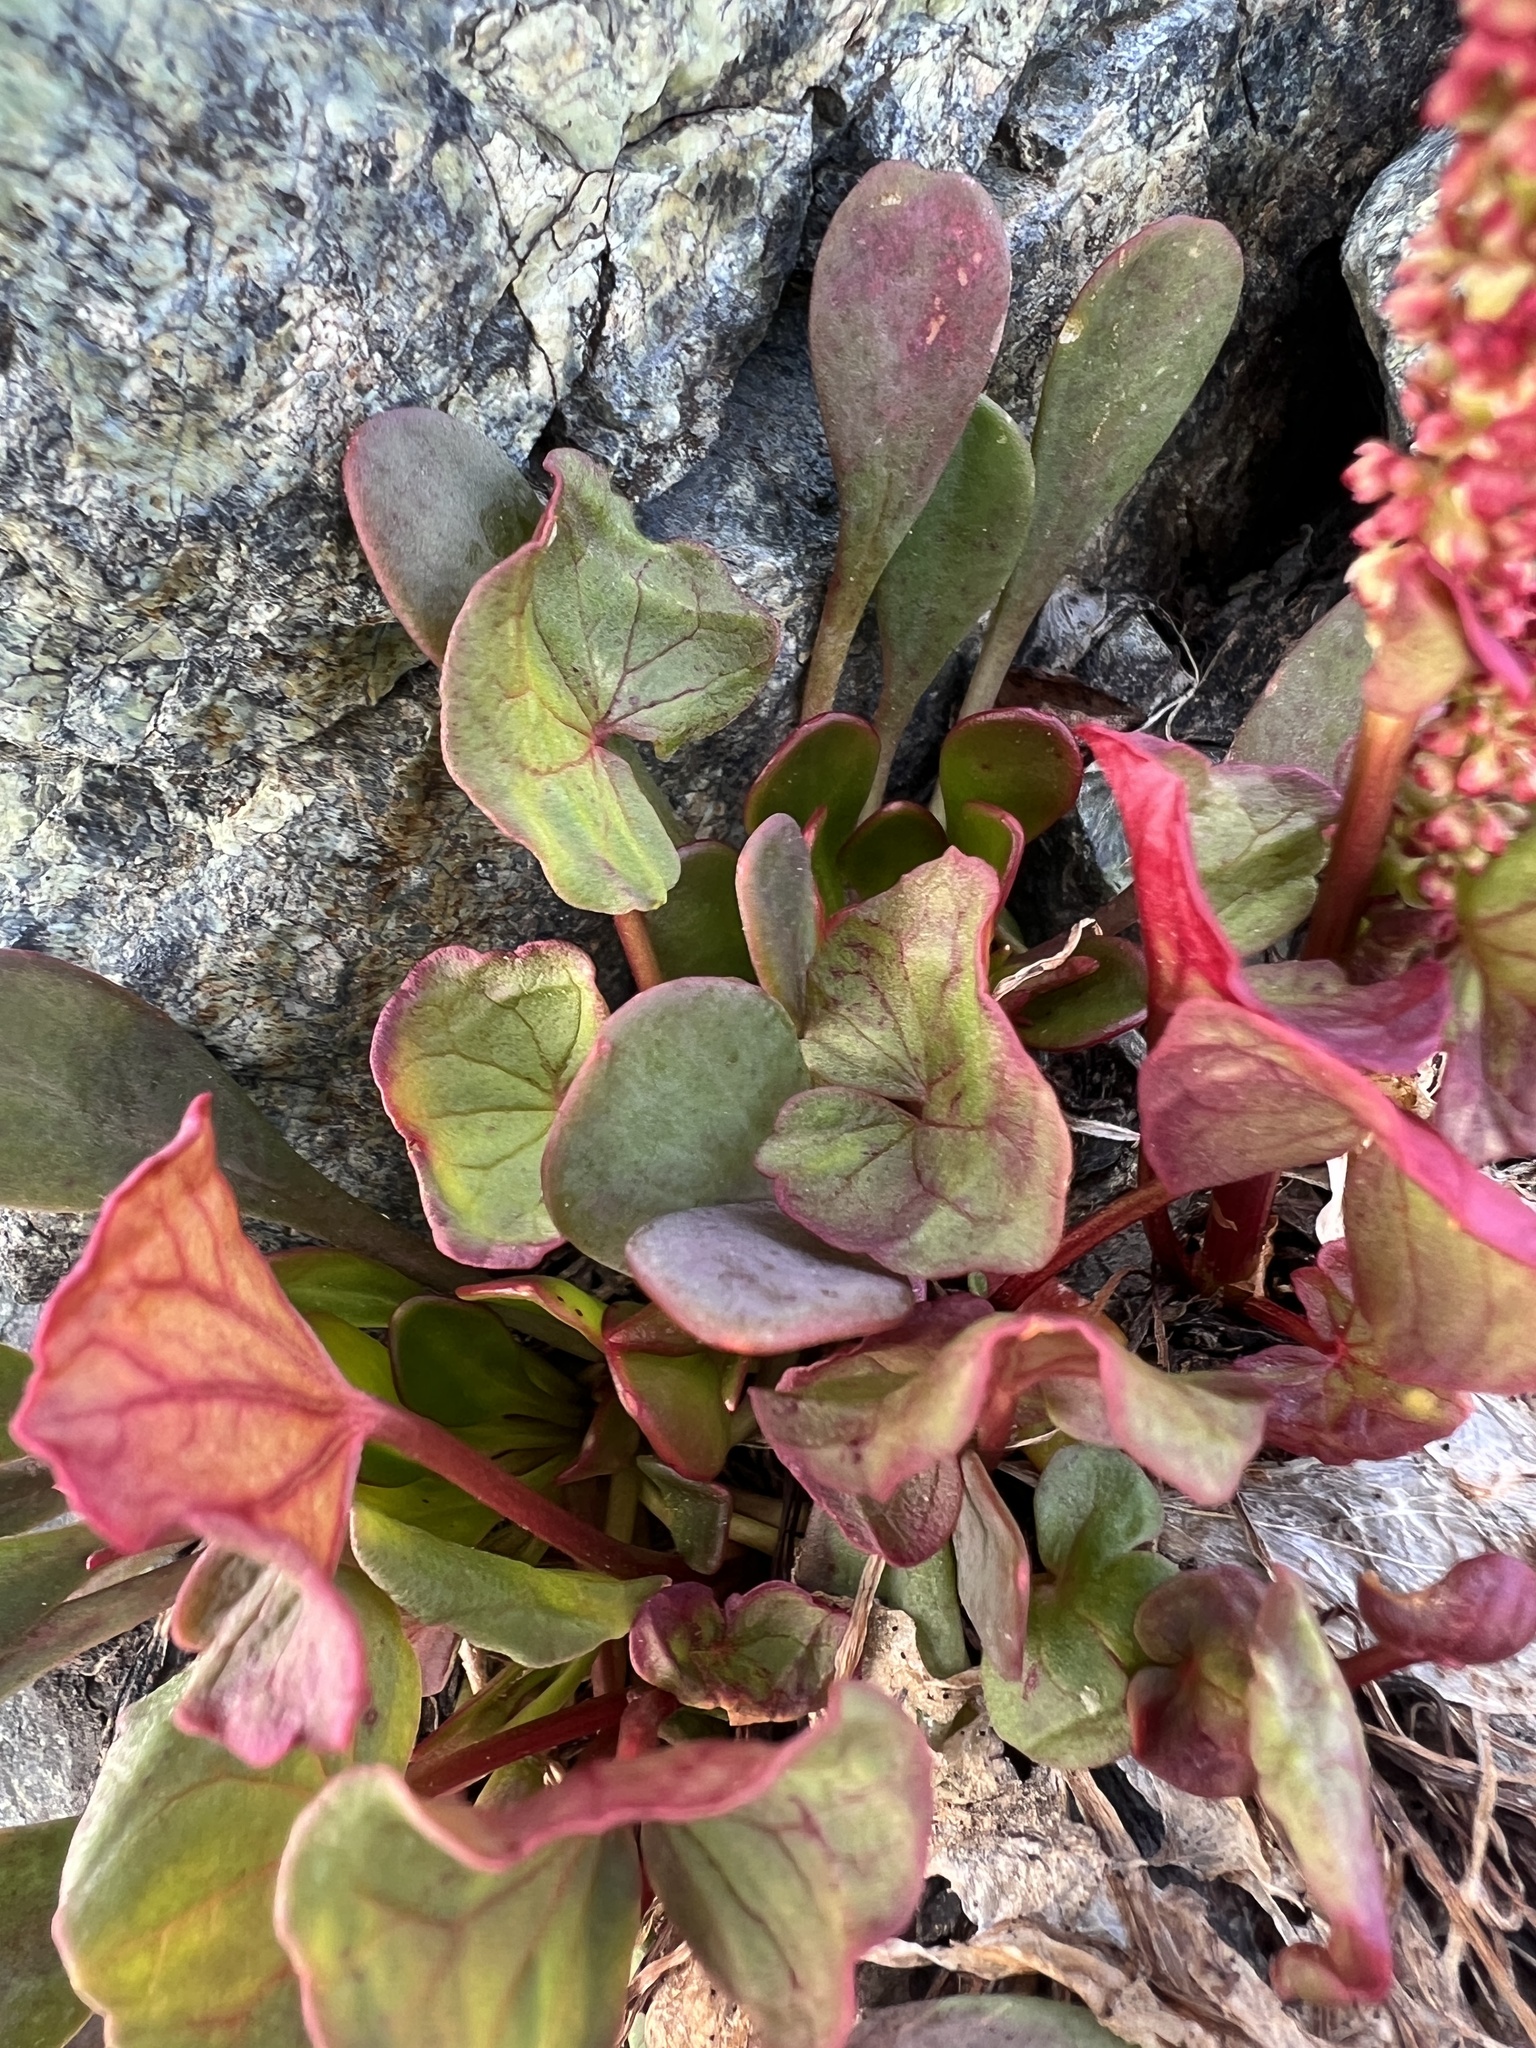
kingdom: Plantae
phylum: Tracheophyta
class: Magnoliopsida
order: Caryophyllales
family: Polygonaceae
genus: Oxyria
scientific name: Oxyria digyna
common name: Alpine mountain-sorrel
